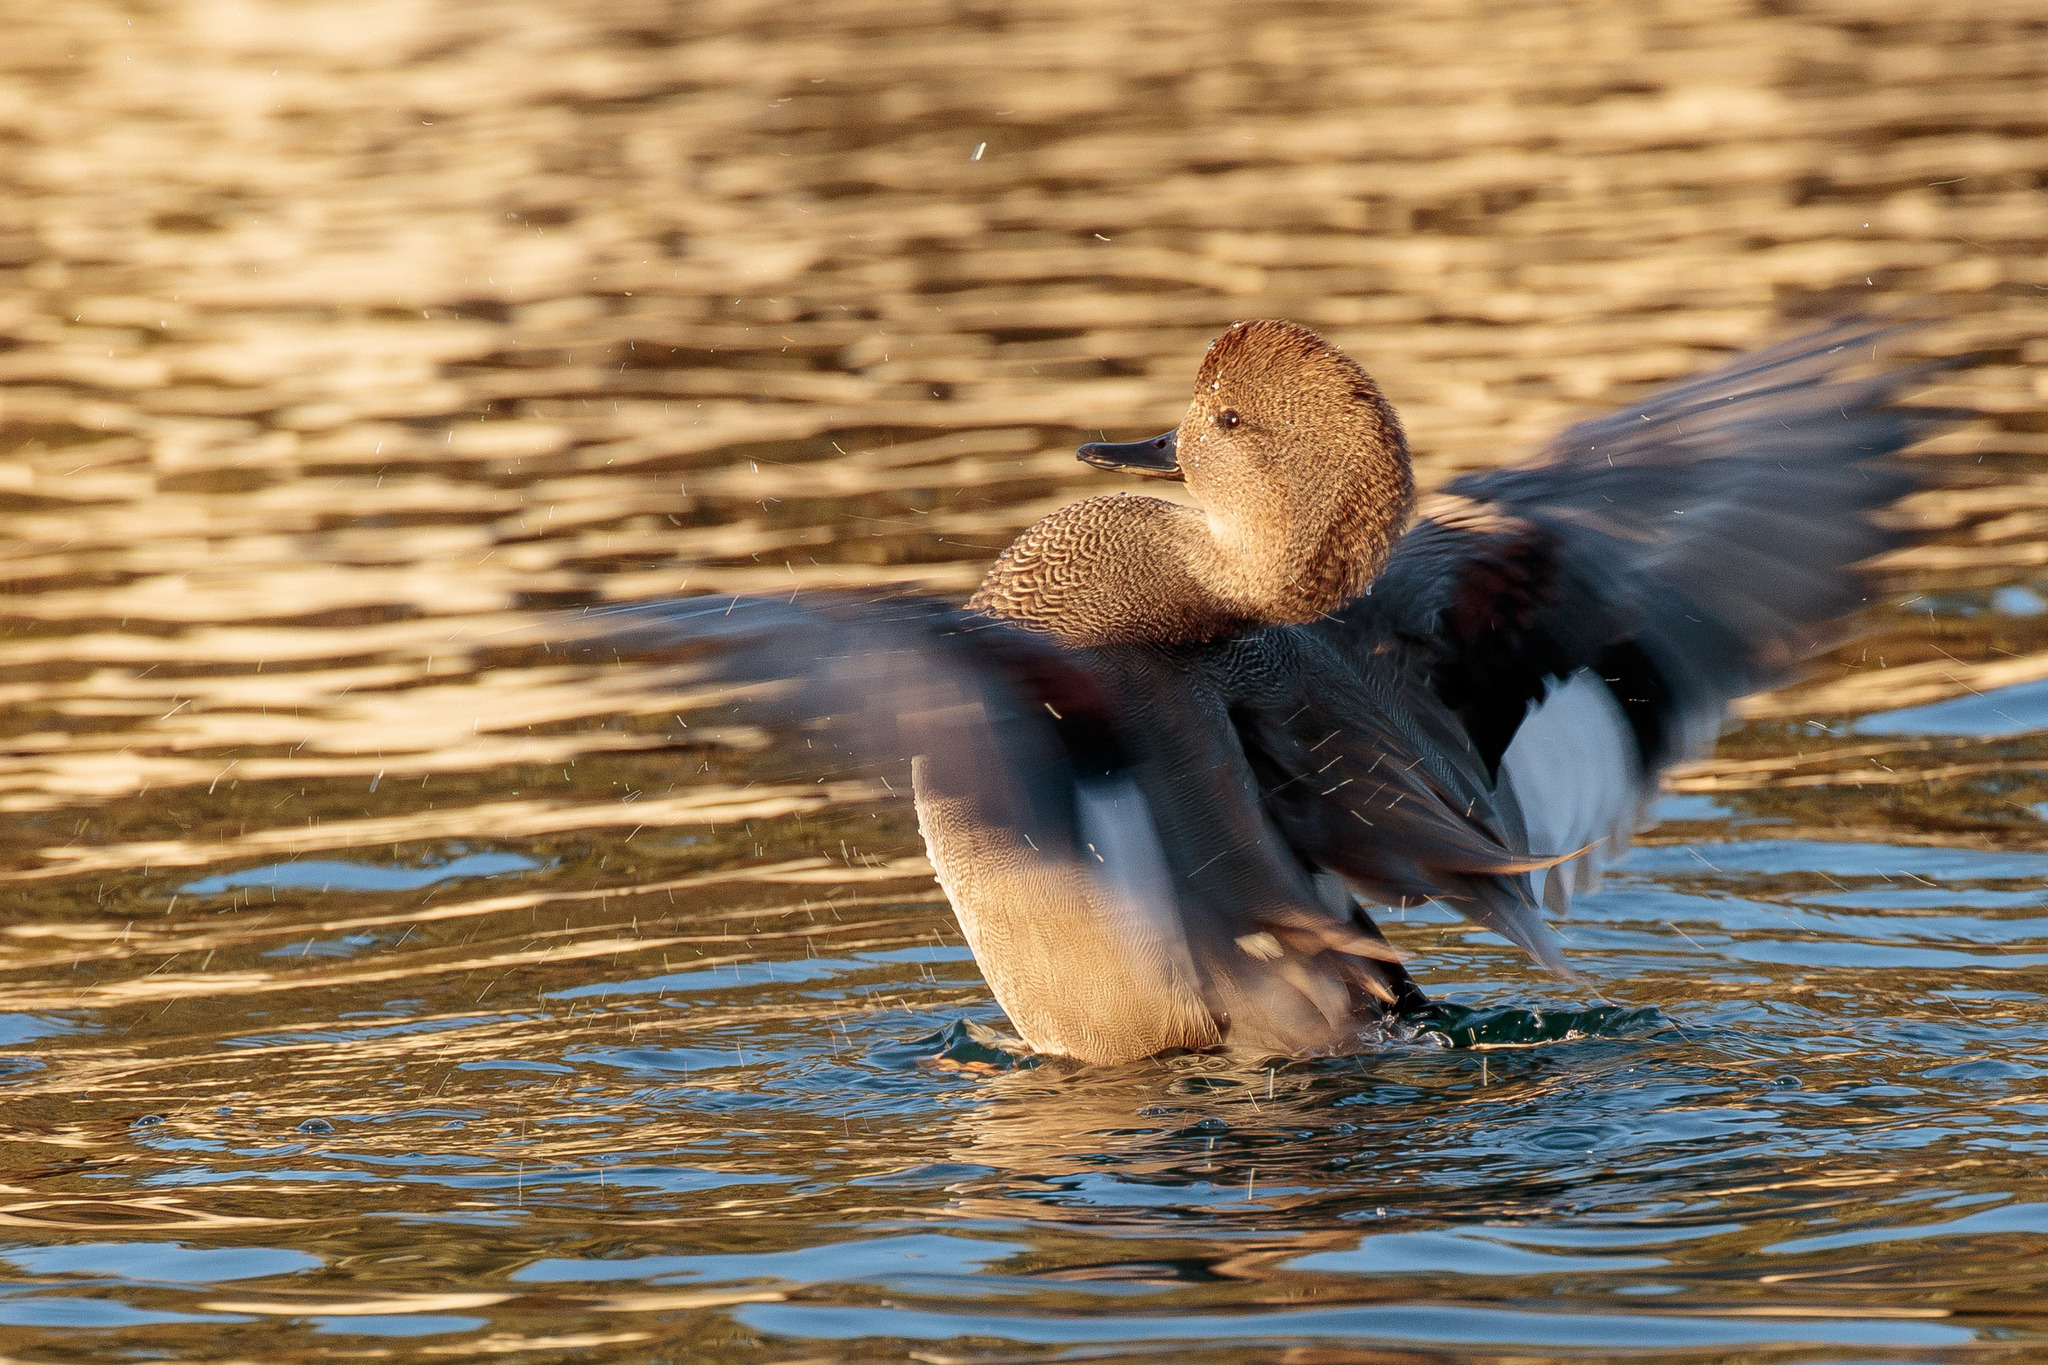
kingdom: Animalia
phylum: Chordata
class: Aves
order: Anseriformes
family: Anatidae
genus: Mareca
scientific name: Mareca strepera
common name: Gadwall
